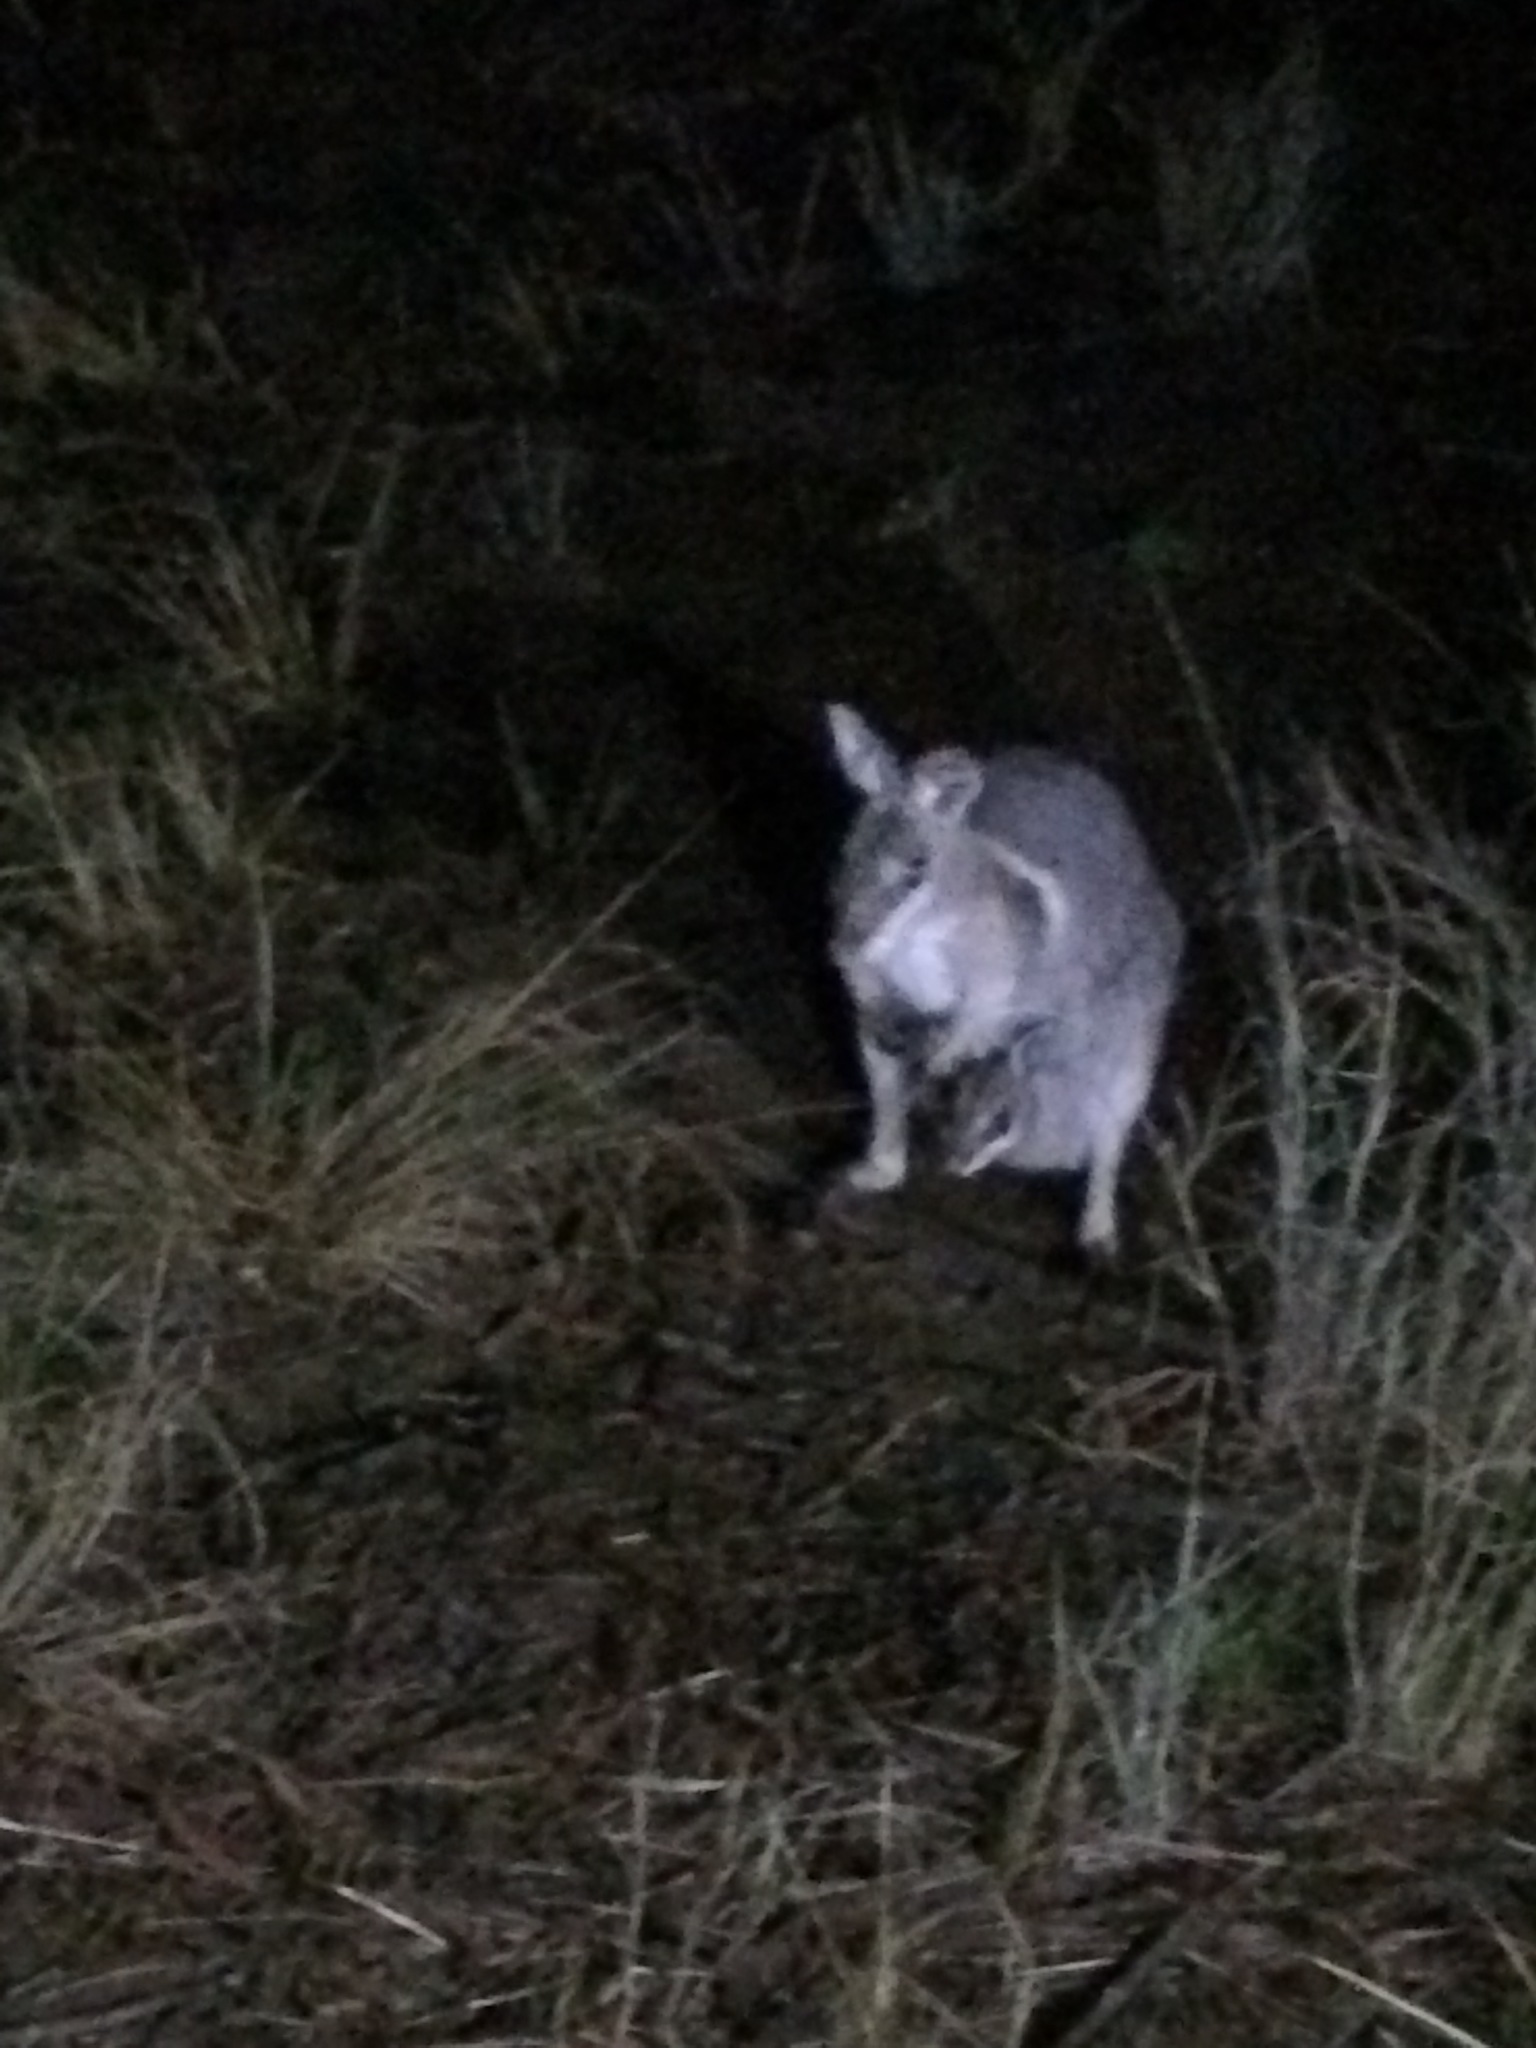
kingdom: Animalia
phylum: Chordata
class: Mammalia
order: Diprotodontia
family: Macropodidae
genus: Onychogalea
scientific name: Onychogalea fraenata
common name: Bridled nail-tail wallaby
